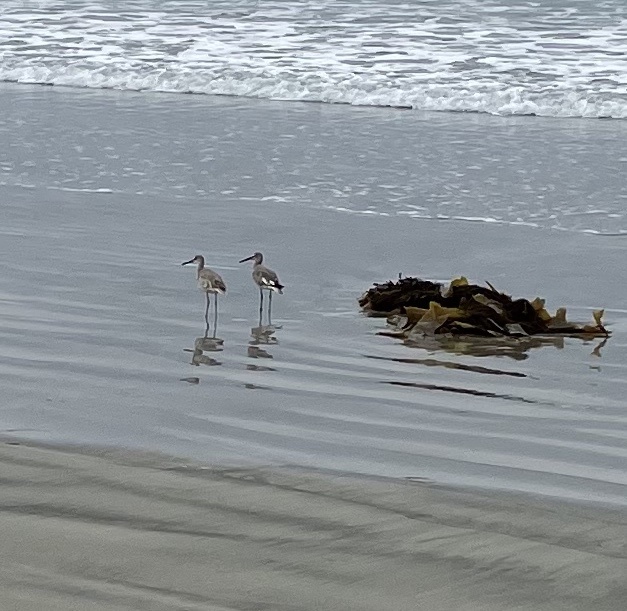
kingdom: Animalia
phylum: Chordata
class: Aves
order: Charadriiformes
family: Scolopacidae
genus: Tringa
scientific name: Tringa semipalmata
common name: Willet
